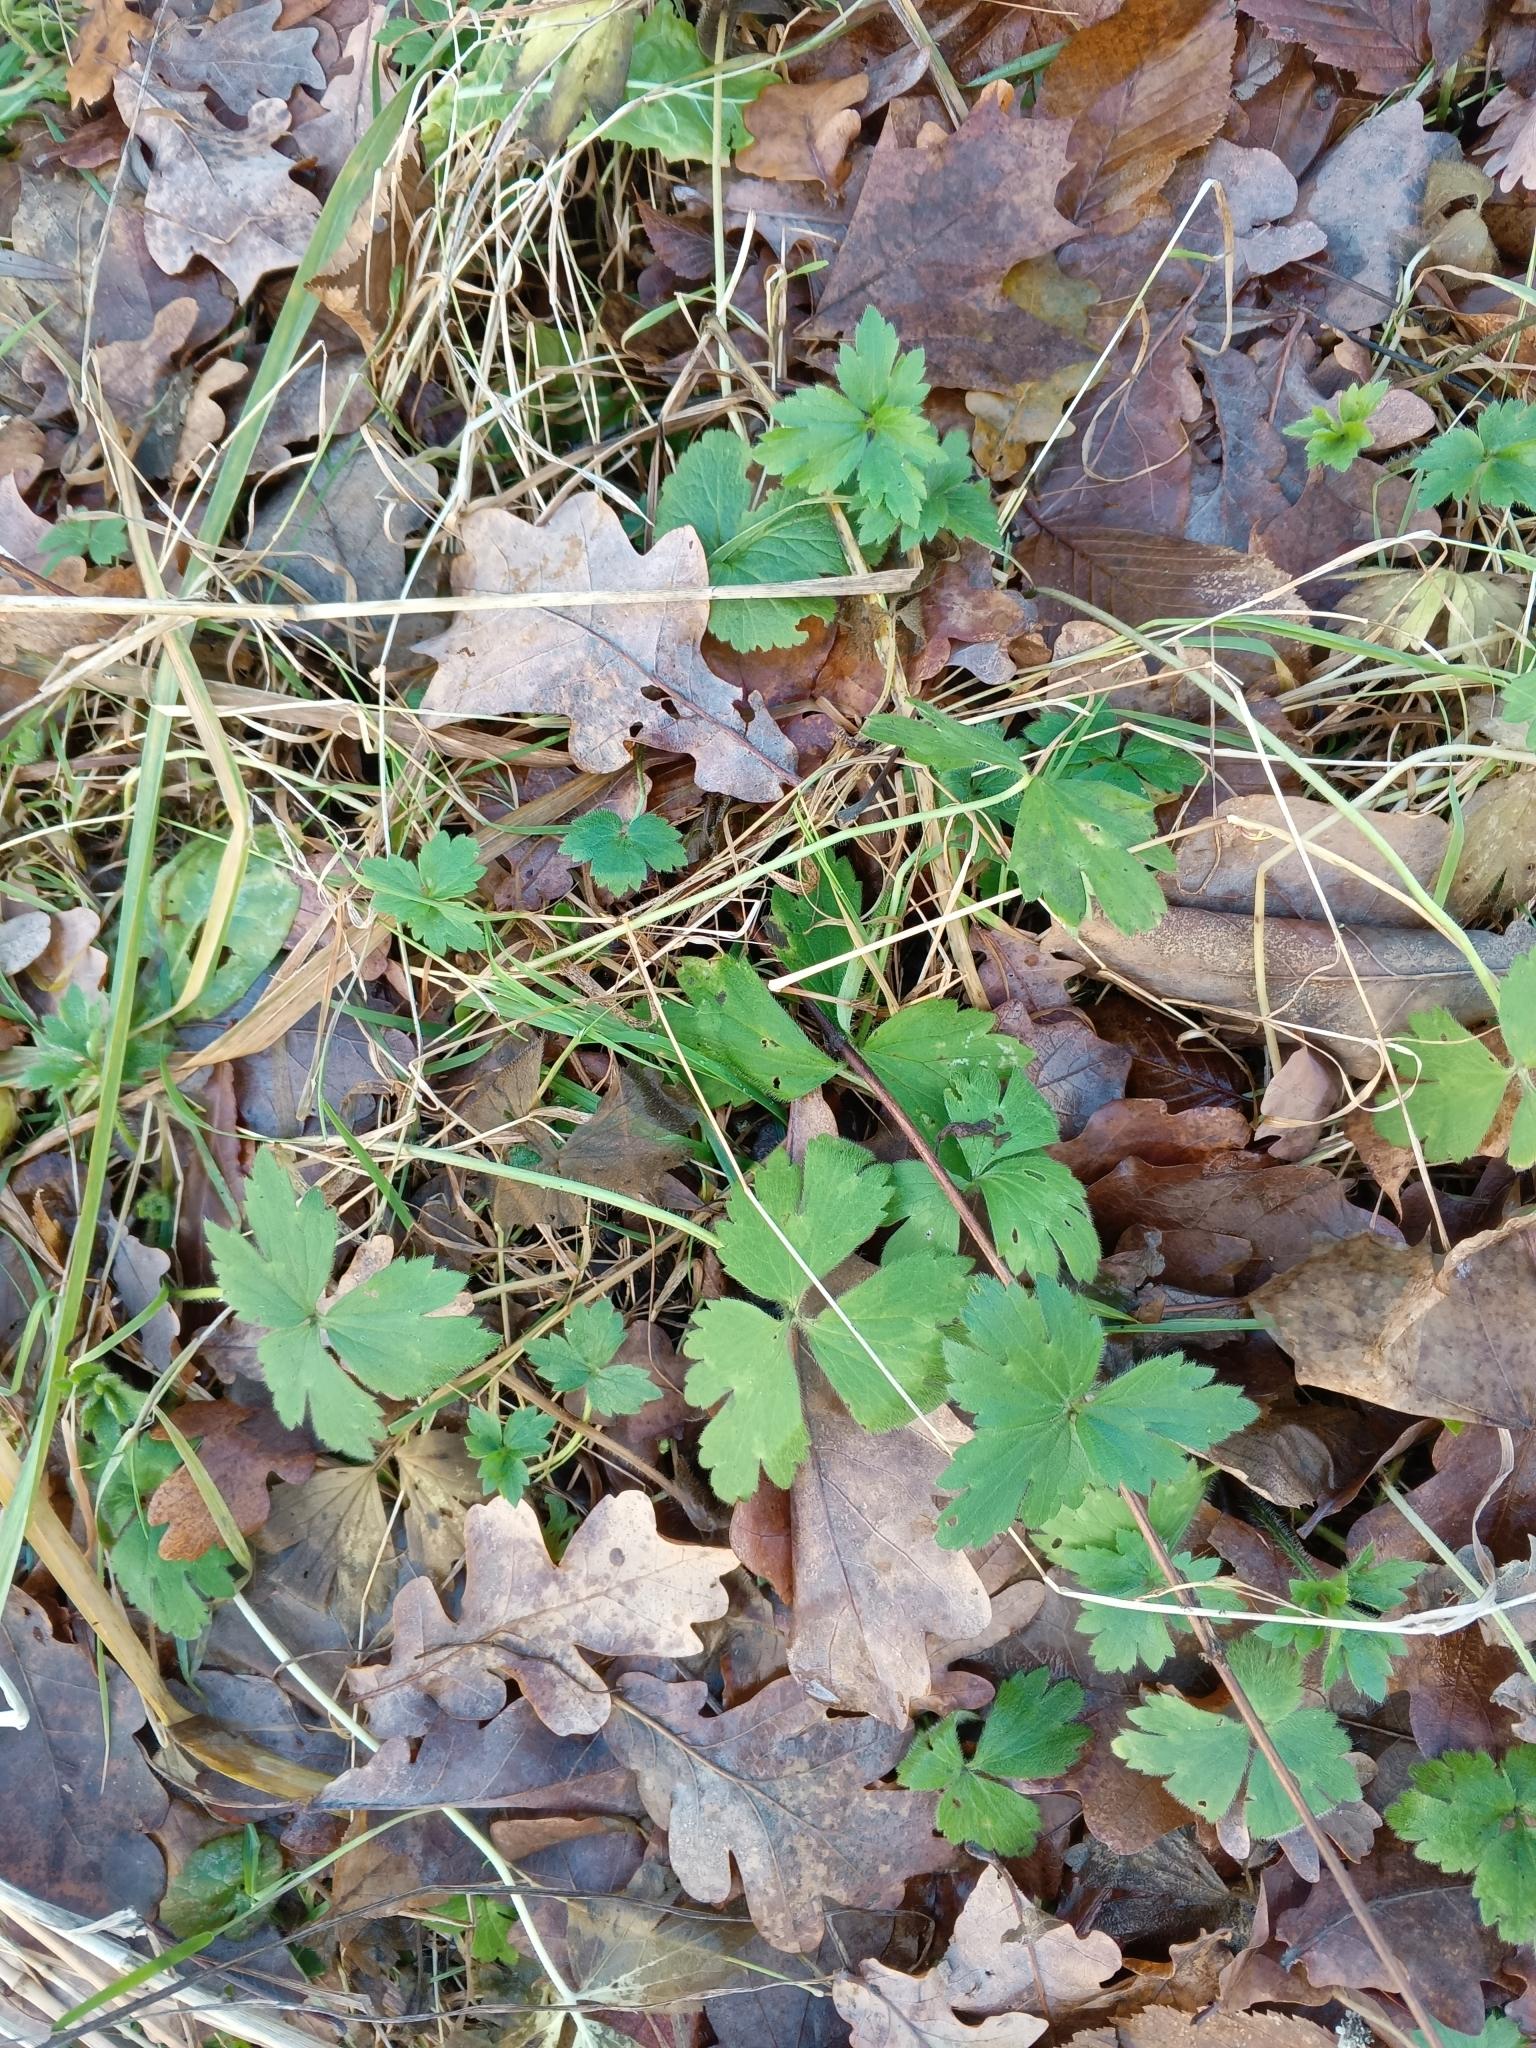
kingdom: Plantae
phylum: Tracheophyta
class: Magnoliopsida
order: Ranunculales
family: Ranunculaceae
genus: Ranunculus
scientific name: Ranunculus repens
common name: Creeping buttercup
